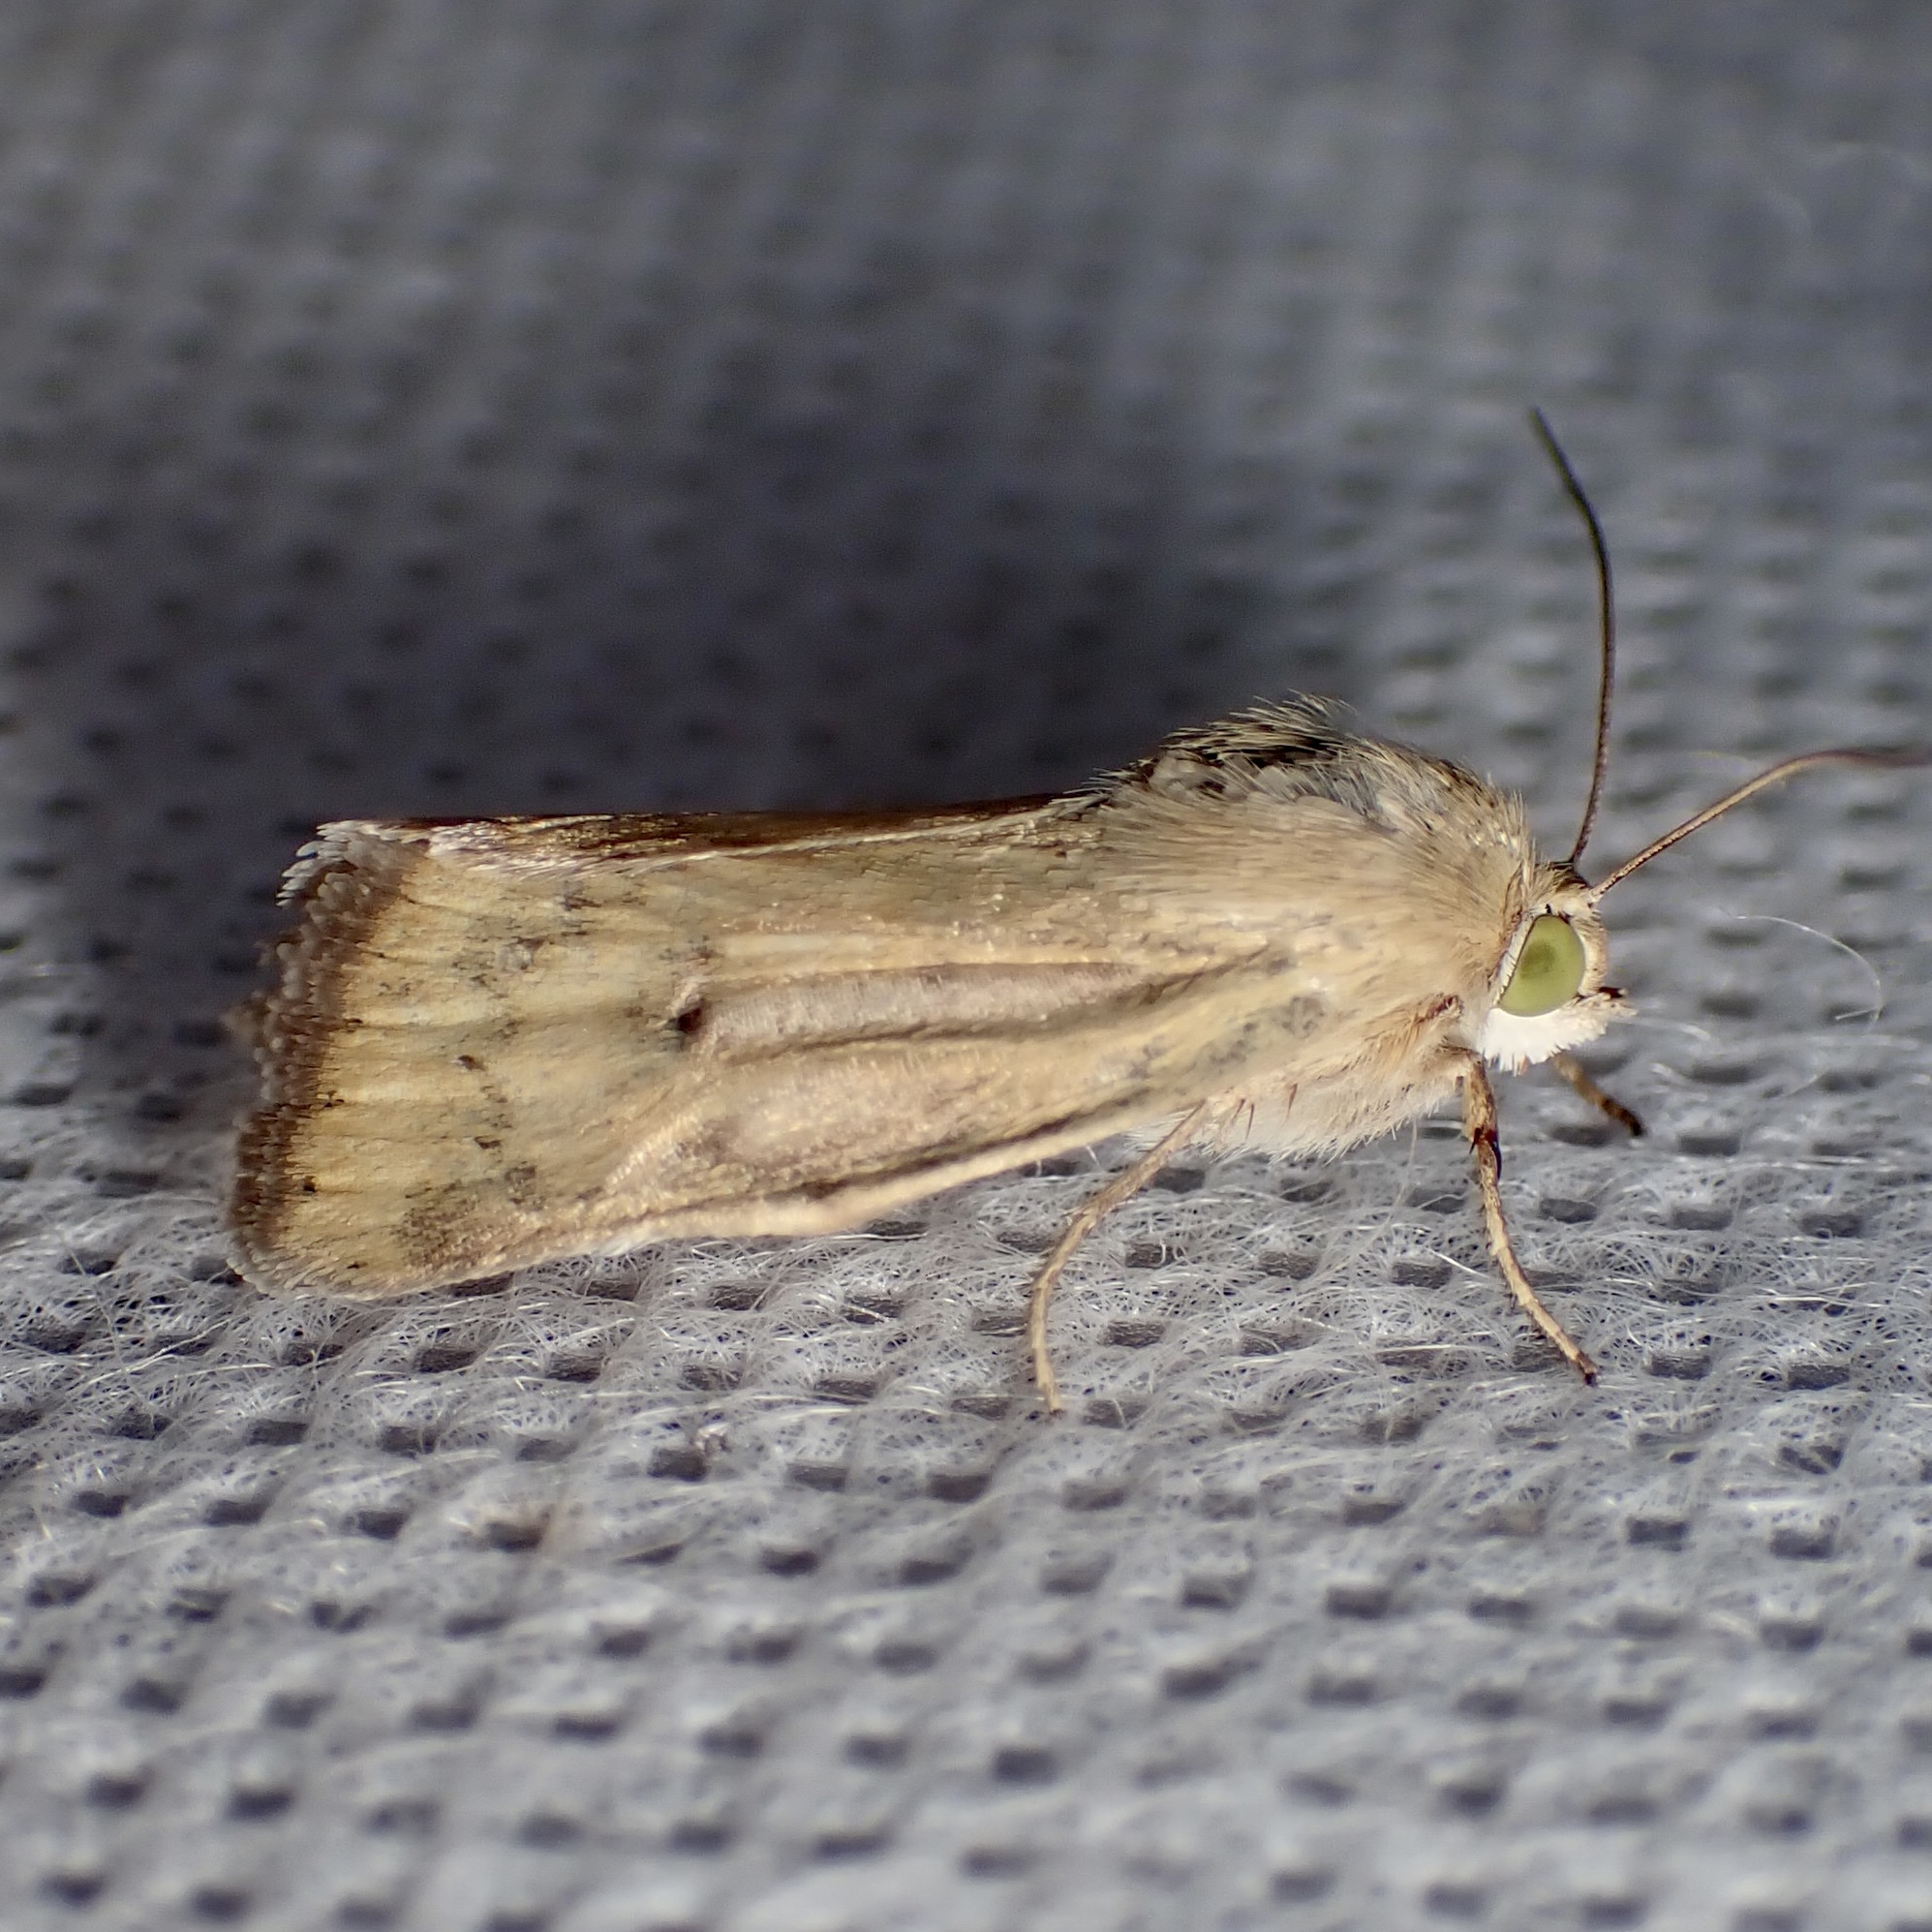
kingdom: Animalia
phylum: Arthropoda
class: Insecta
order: Lepidoptera
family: Noctuidae
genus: Heliocheilus
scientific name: Heliocheilus paradoxus
